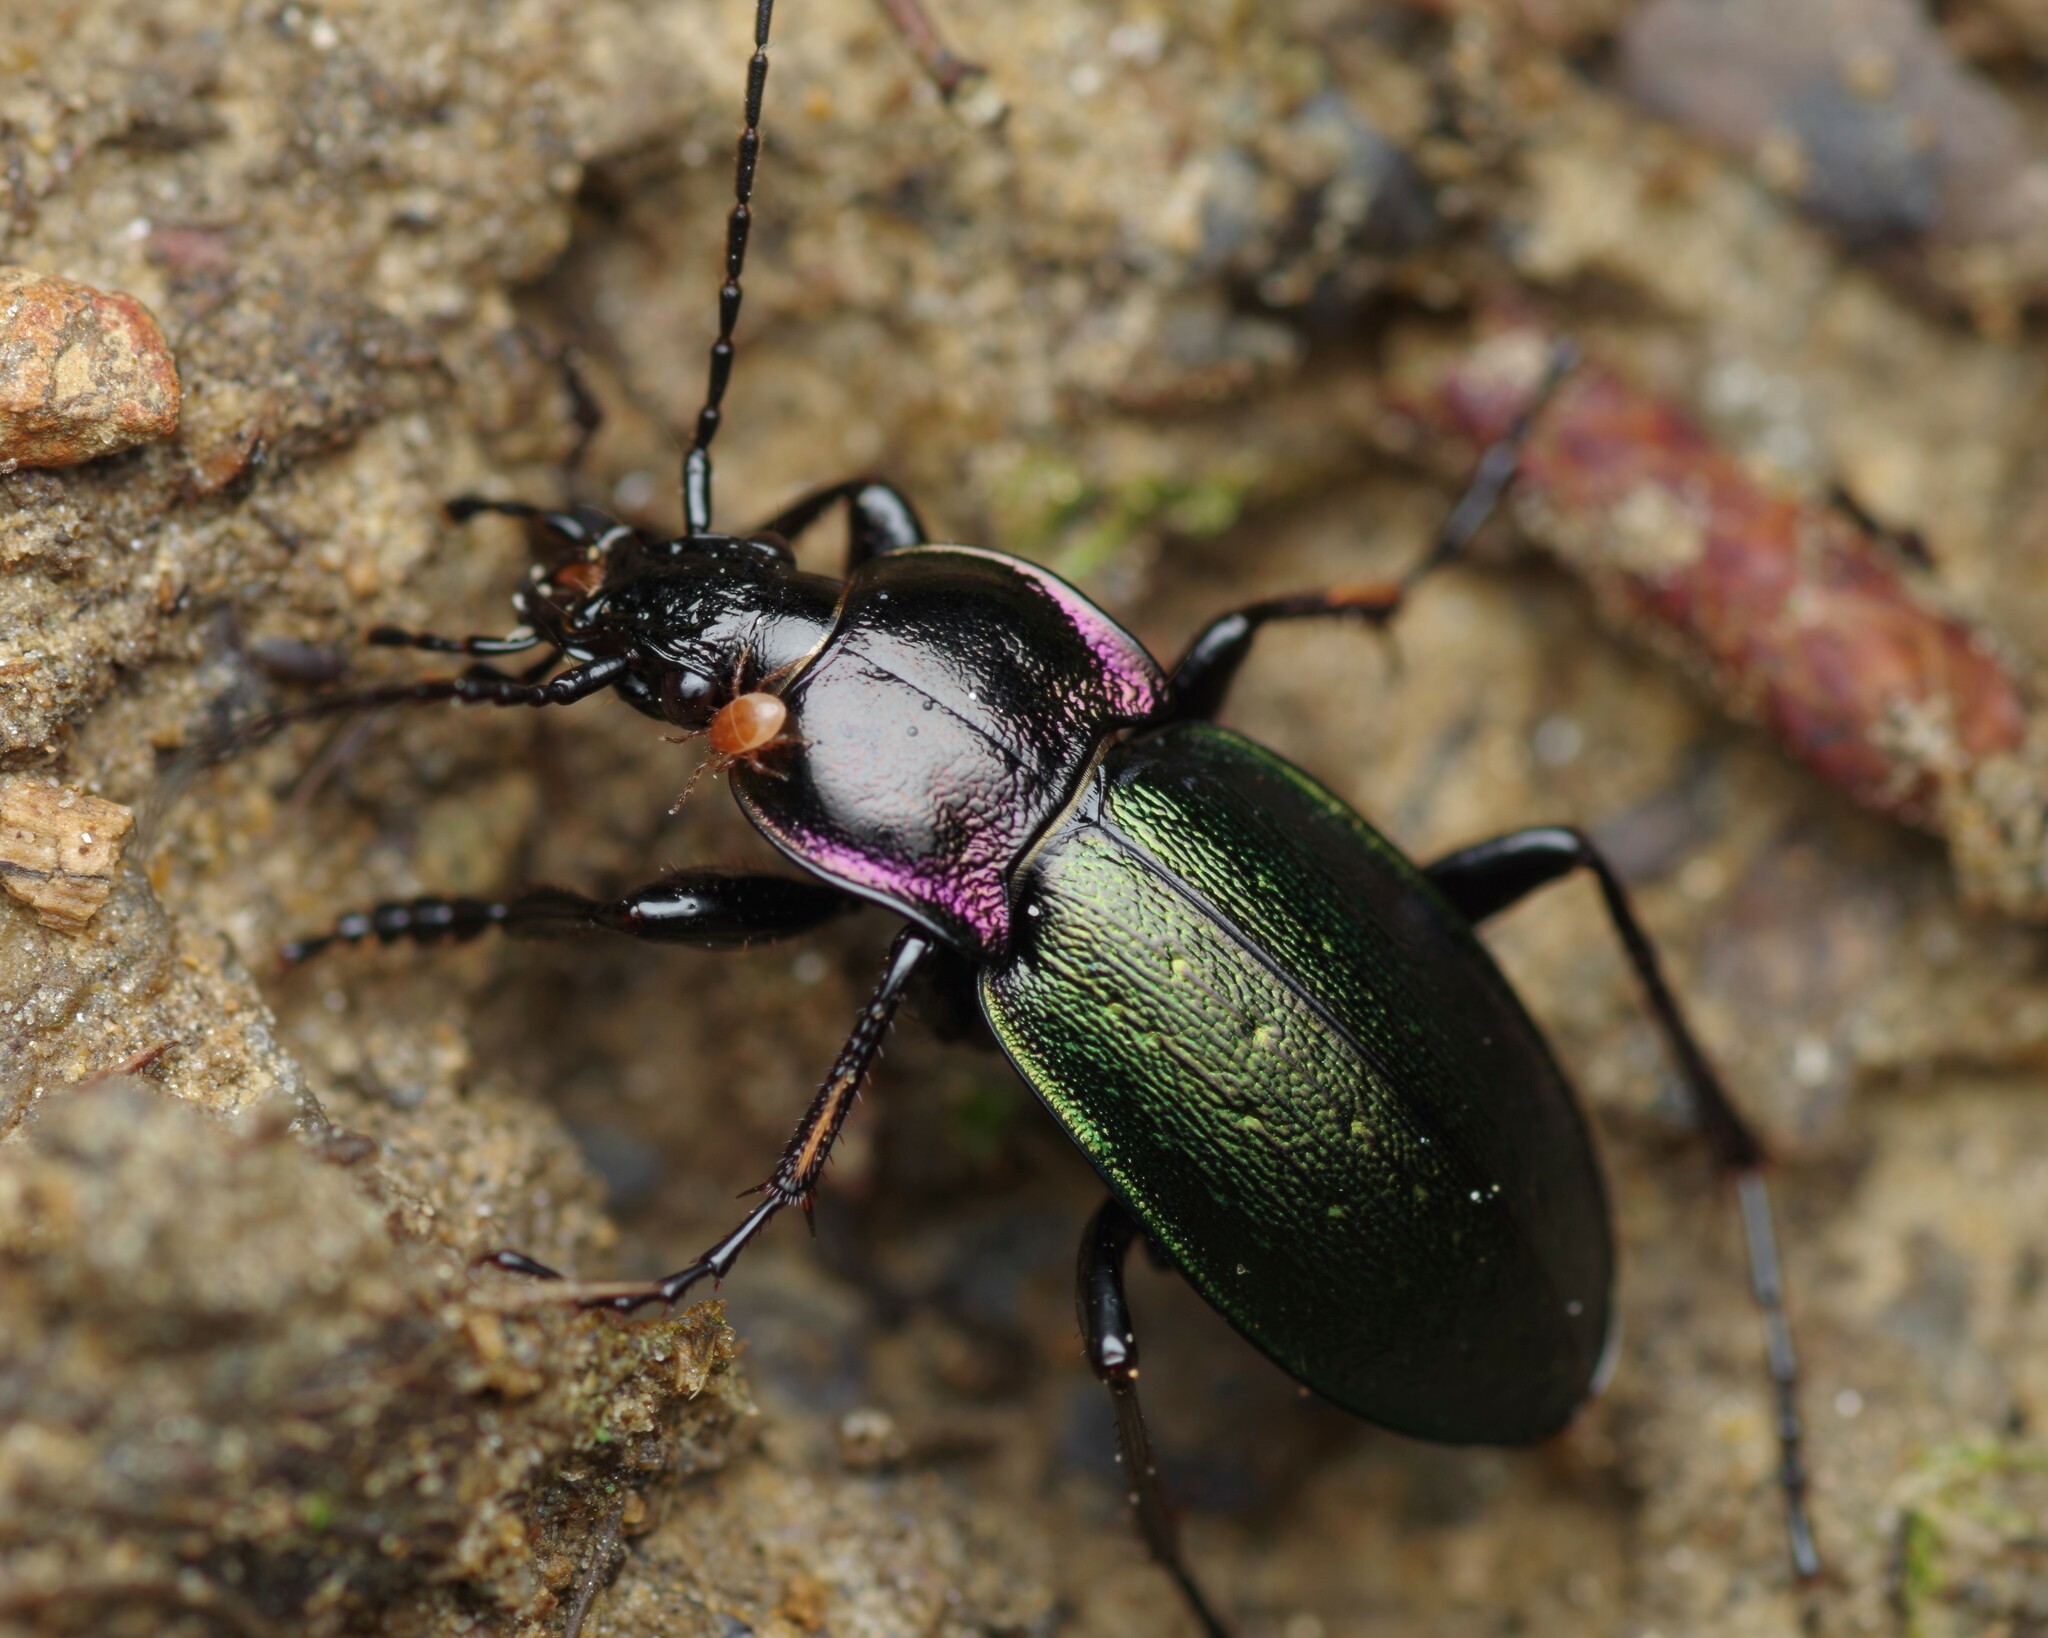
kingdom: Animalia
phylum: Arthropoda
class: Insecta
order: Coleoptera
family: Carabidae
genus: Carabus
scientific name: Carabus nemoralis
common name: European ground beetle
